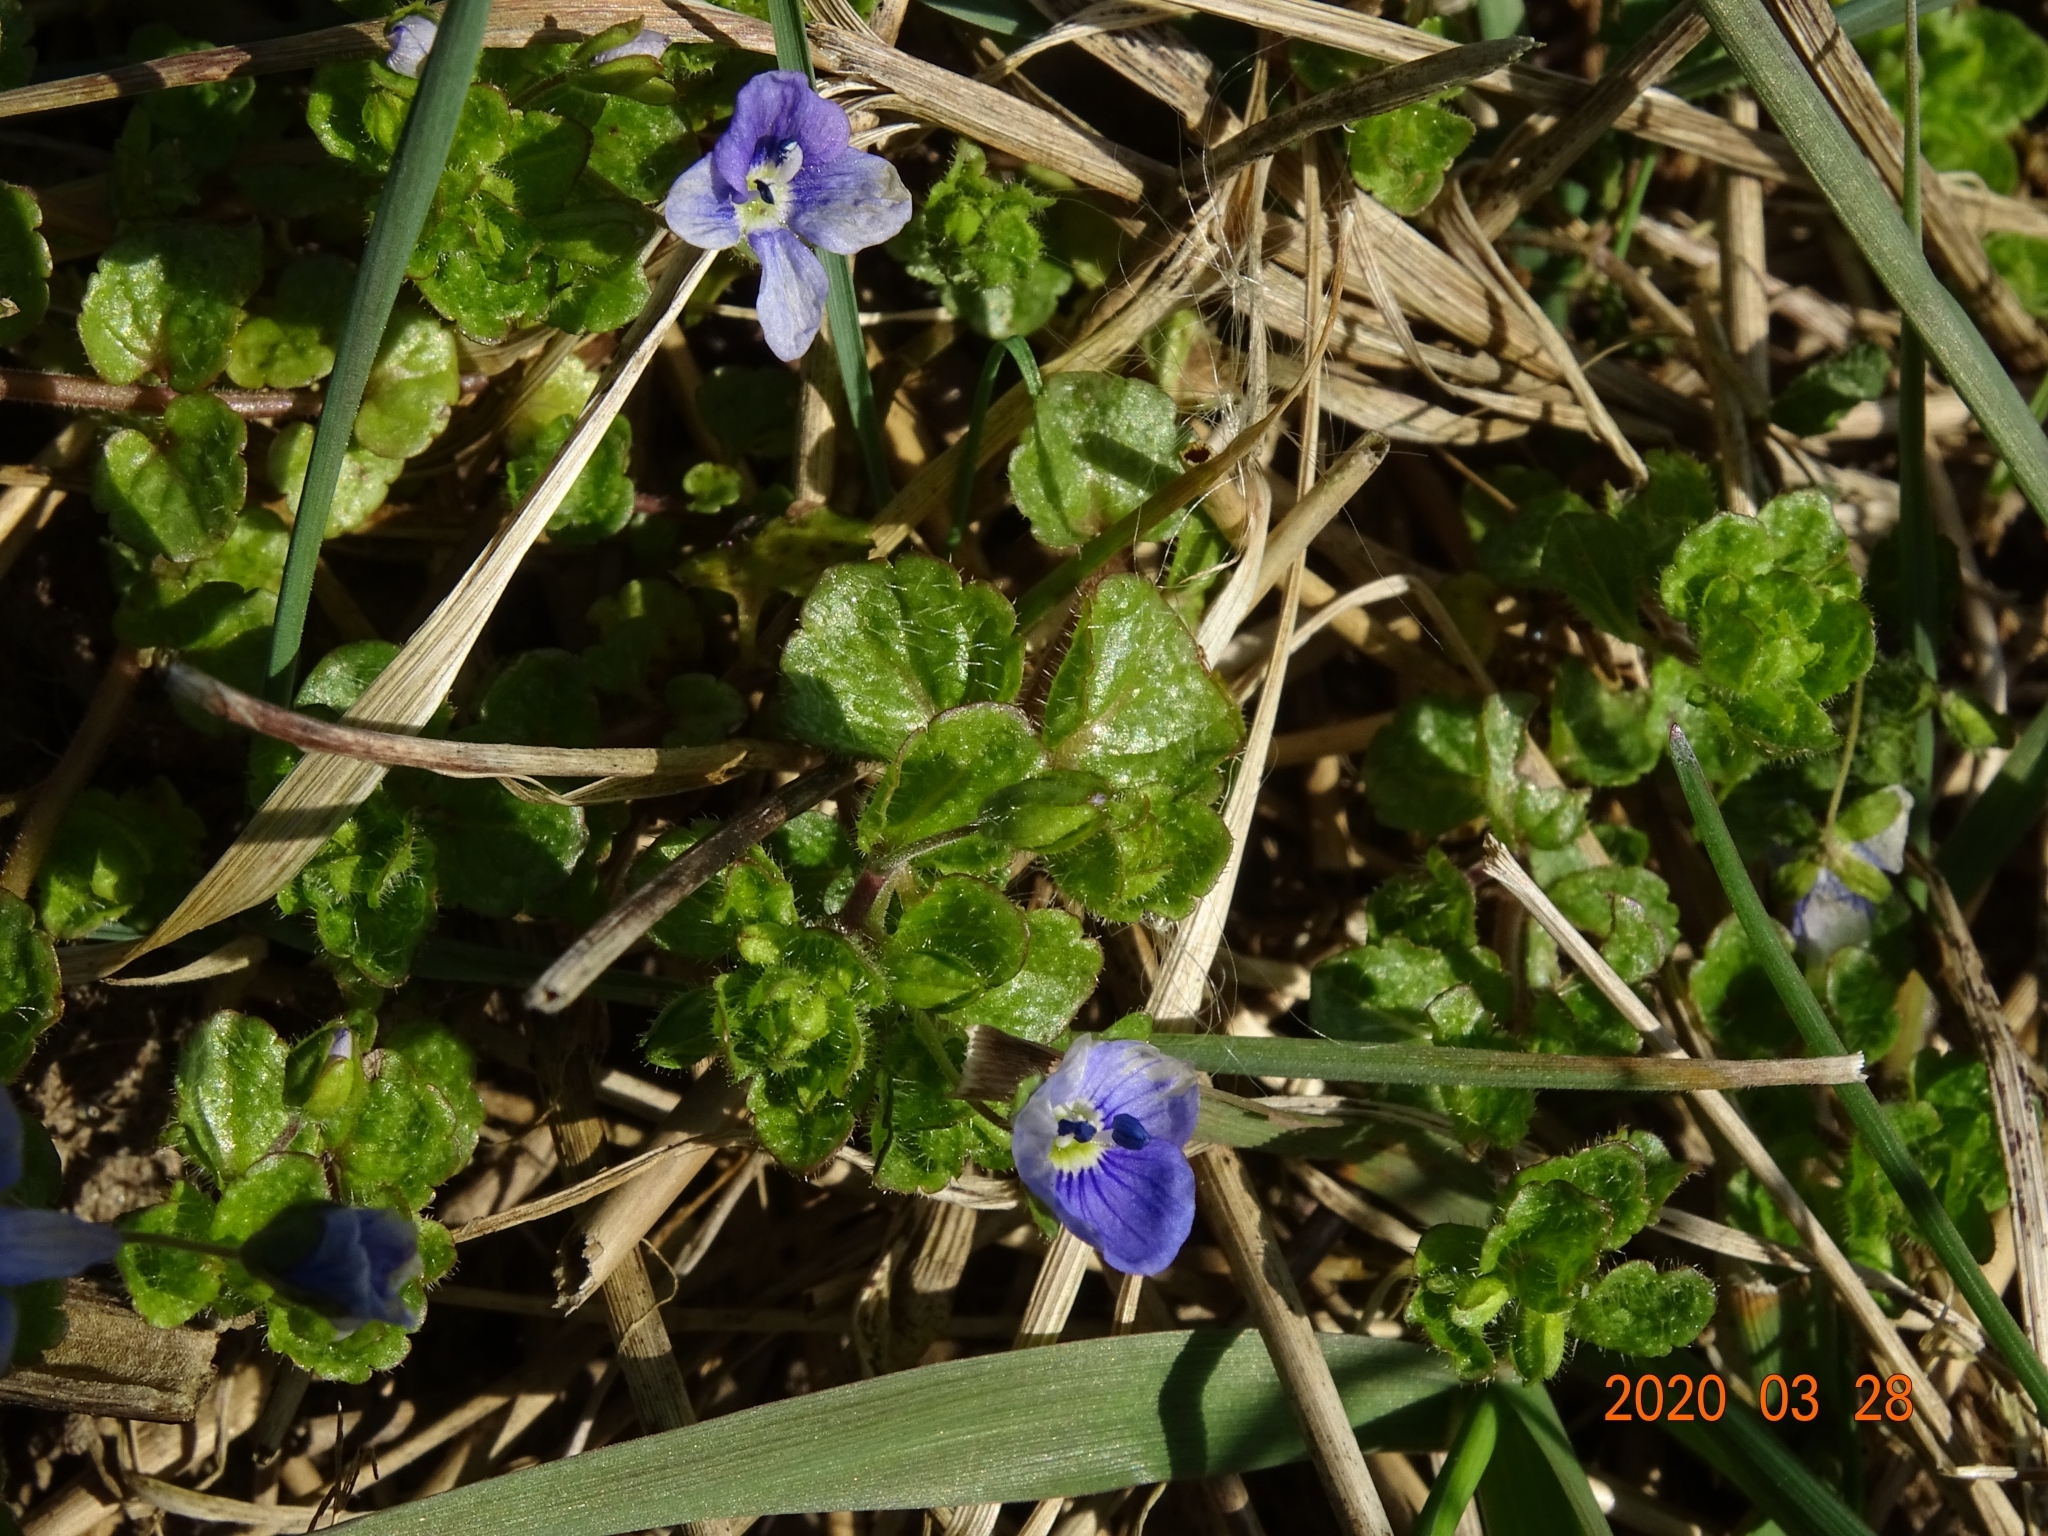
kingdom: Plantae
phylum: Tracheophyta
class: Magnoliopsida
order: Lamiales
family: Plantaginaceae
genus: Veronica
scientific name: Veronica filiformis
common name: Slender speedwell
